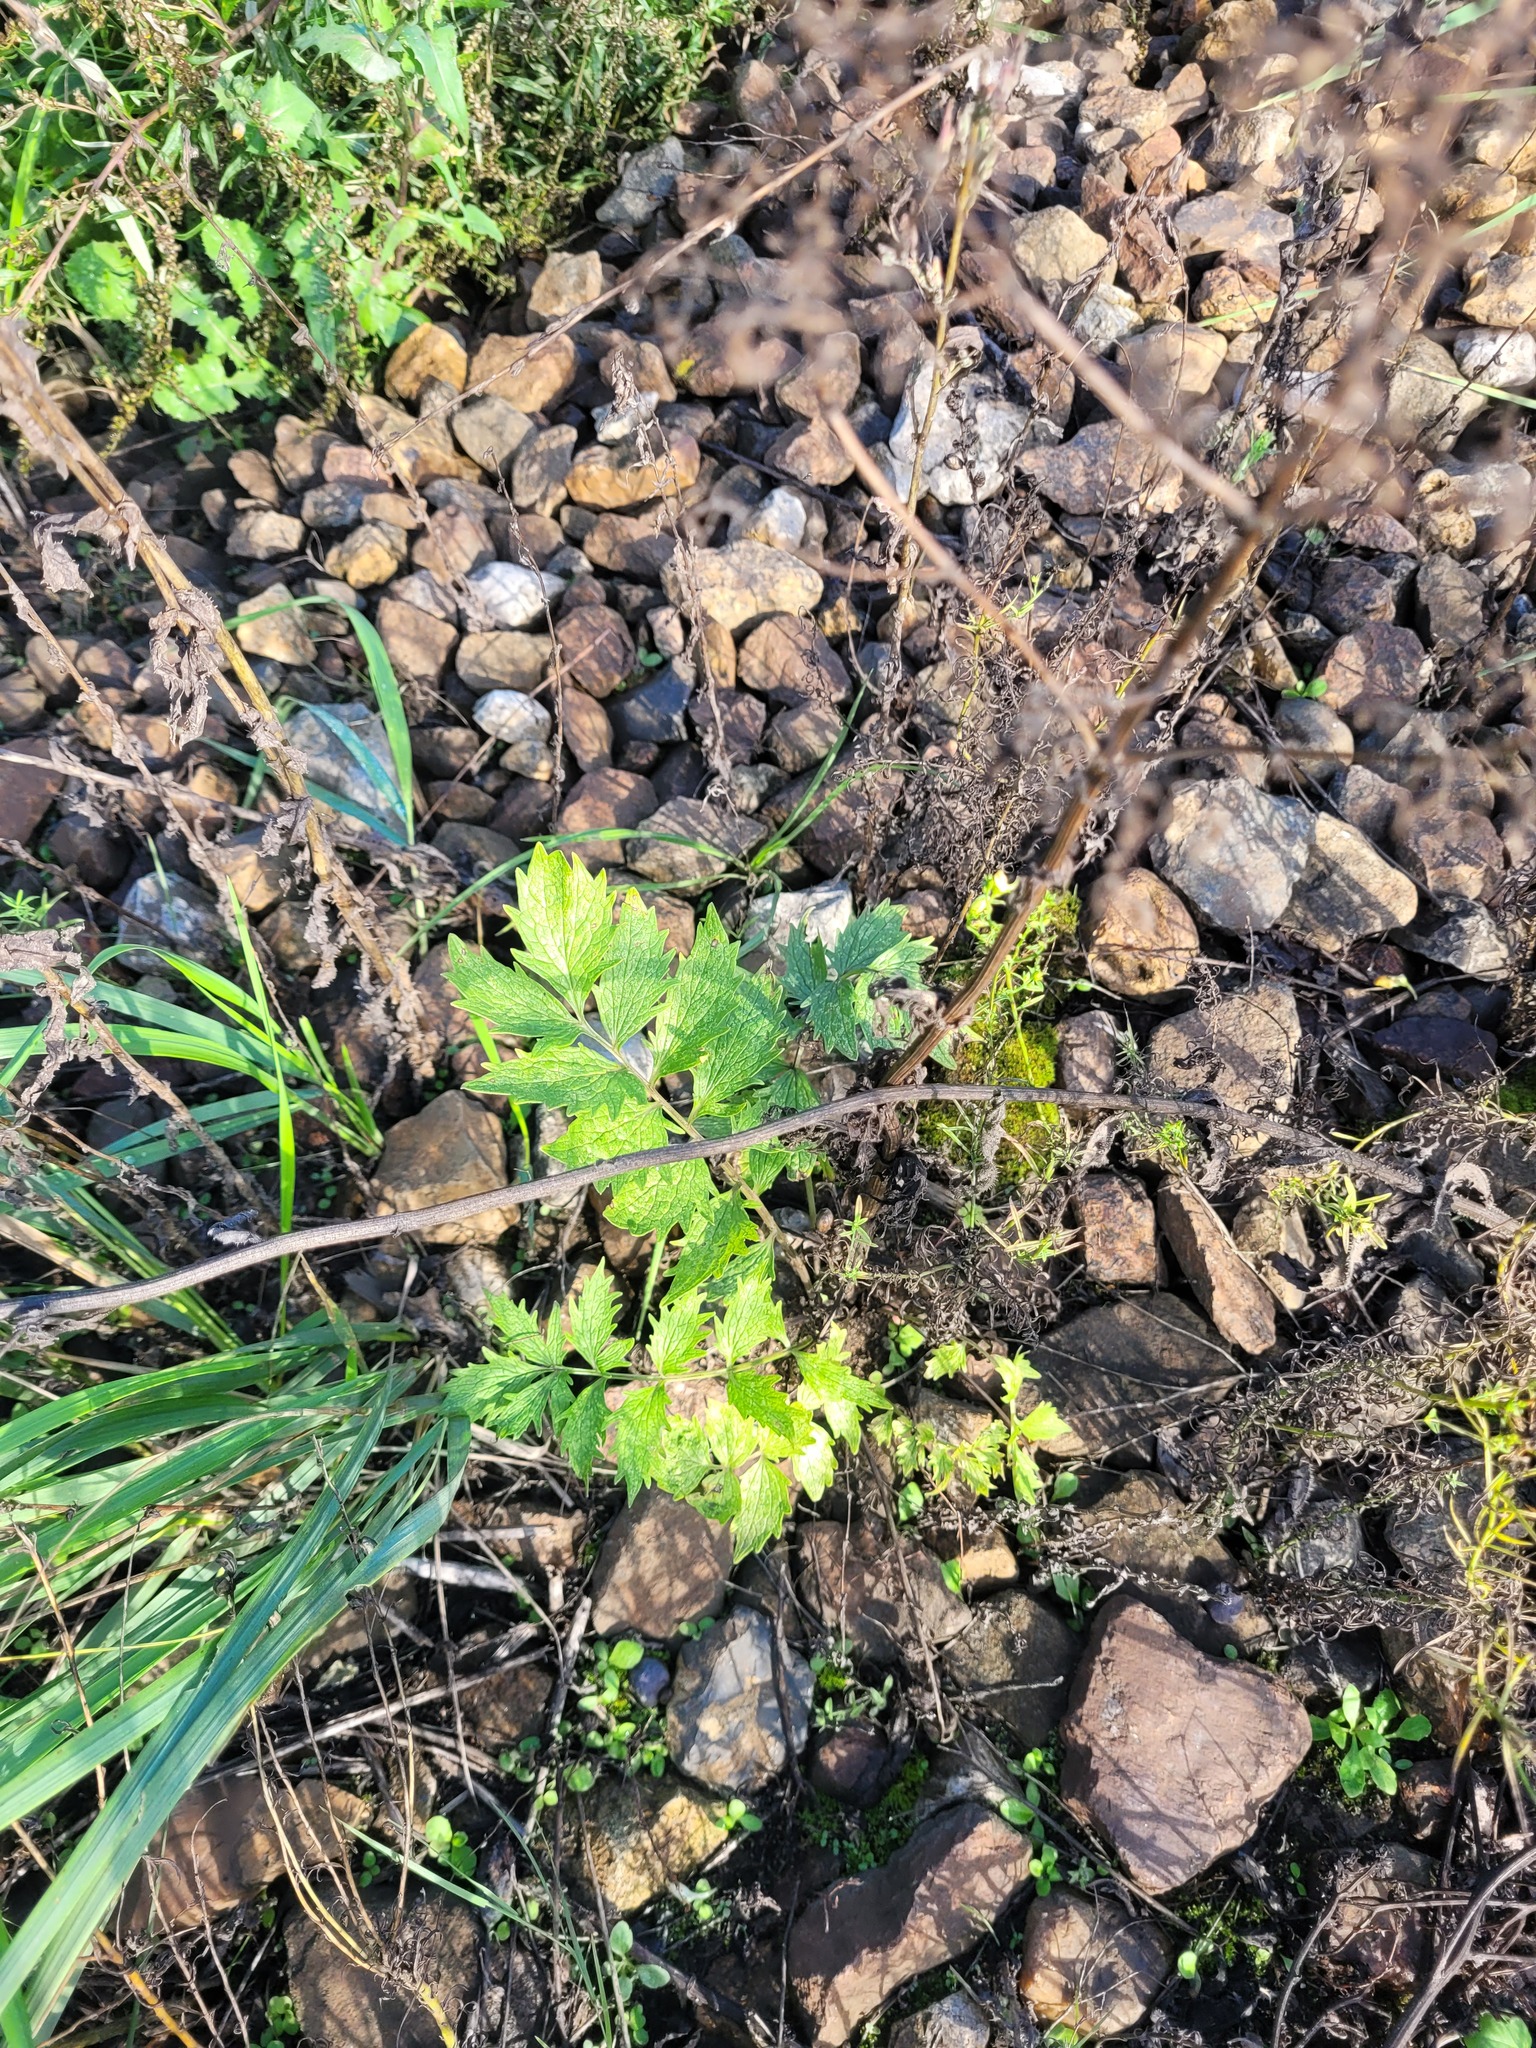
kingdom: Plantae
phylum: Tracheophyta
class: Magnoliopsida
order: Dipsacales
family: Caprifoliaceae
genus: Valeriana
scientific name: Valeriana officinalis
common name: Common valerian
